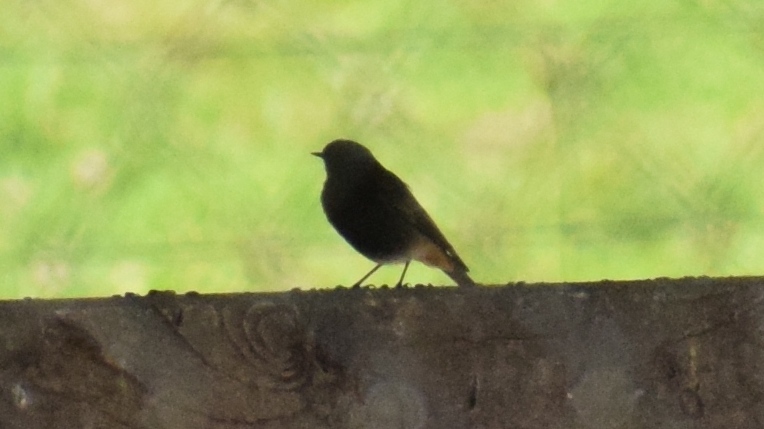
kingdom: Animalia
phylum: Chordata
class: Aves
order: Passeriformes
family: Muscicapidae
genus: Phoenicurus
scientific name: Phoenicurus ochruros
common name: Black redstart
